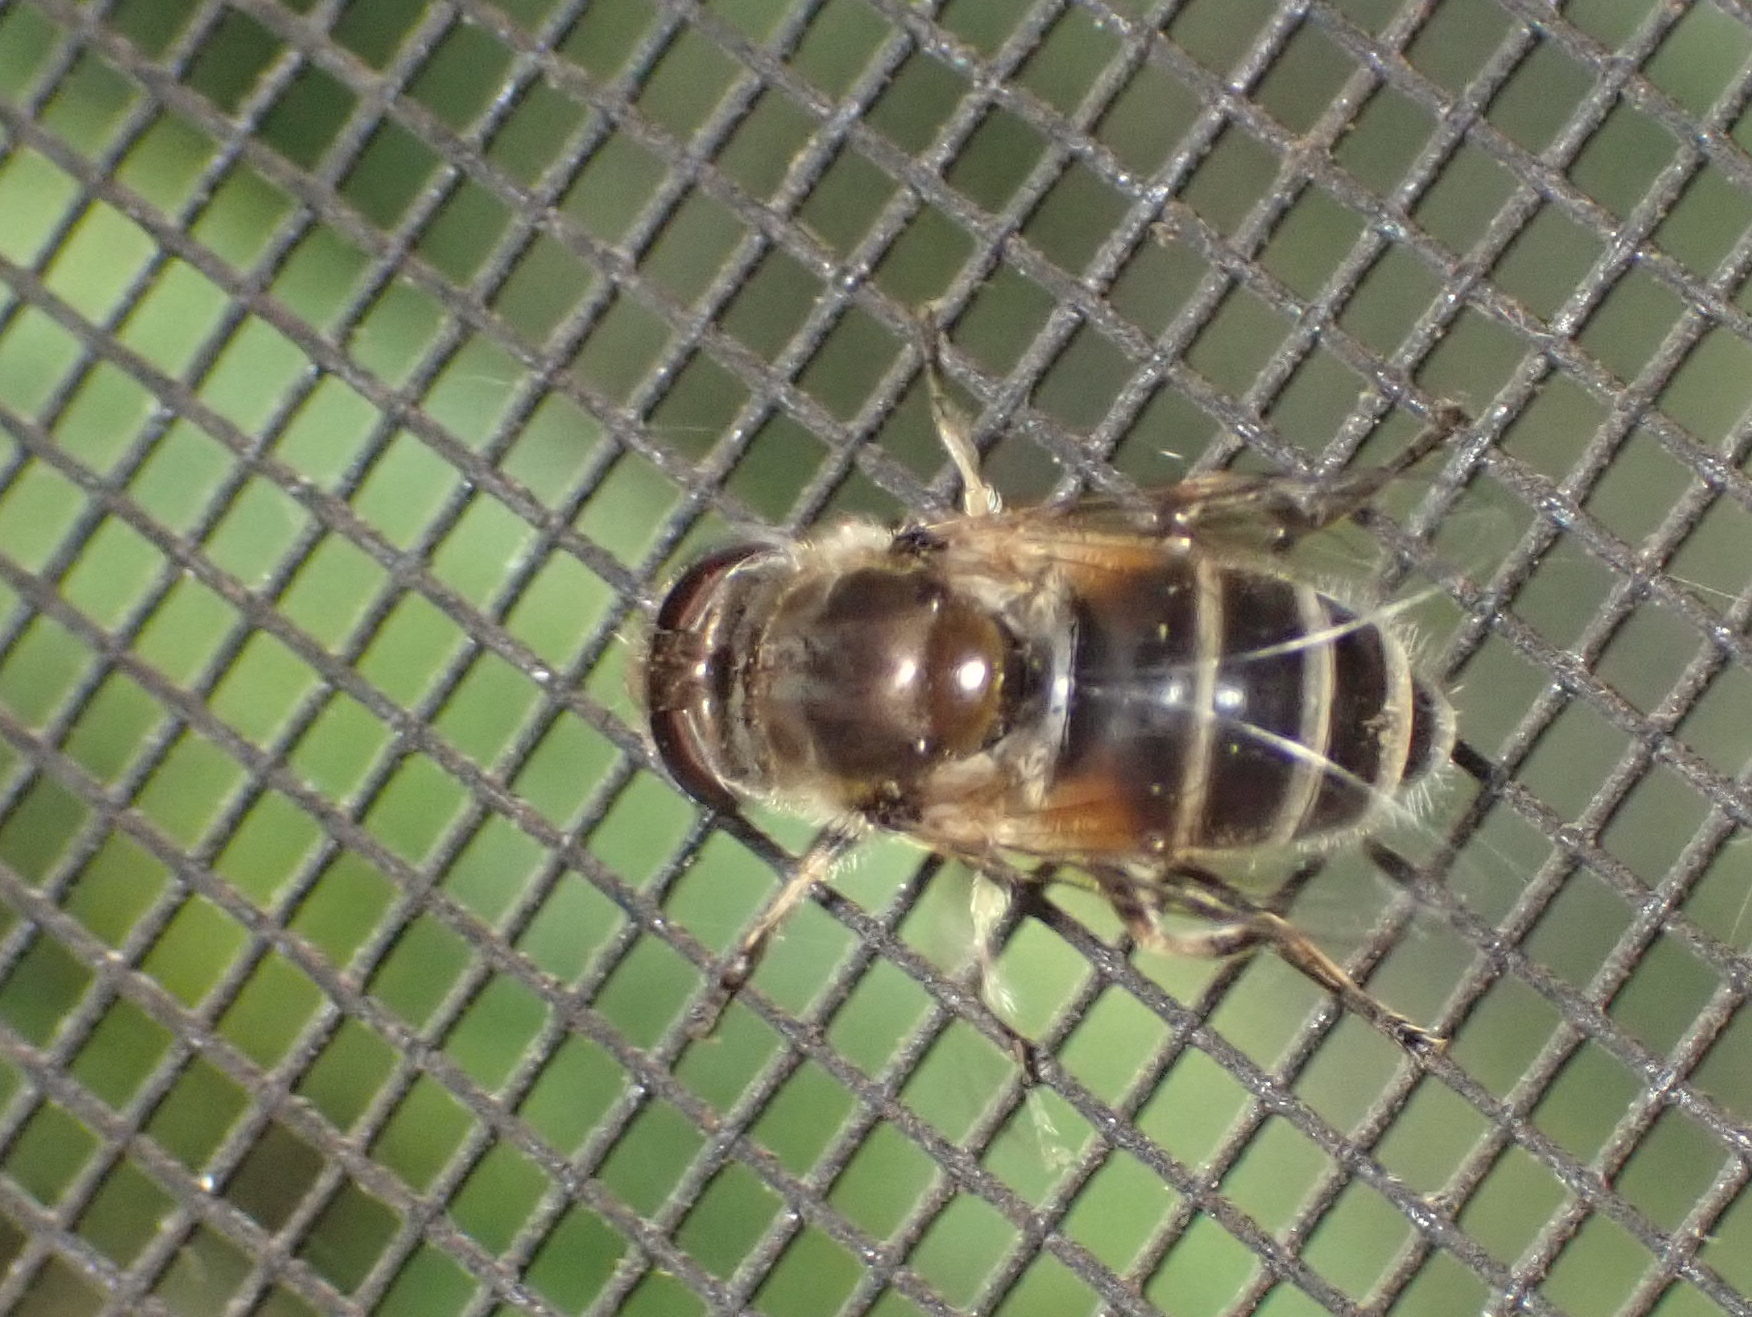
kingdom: Animalia
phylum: Arthropoda
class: Insecta
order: Diptera
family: Syrphidae
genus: Eristalis
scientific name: Eristalis arbustorum
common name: Hover fly
